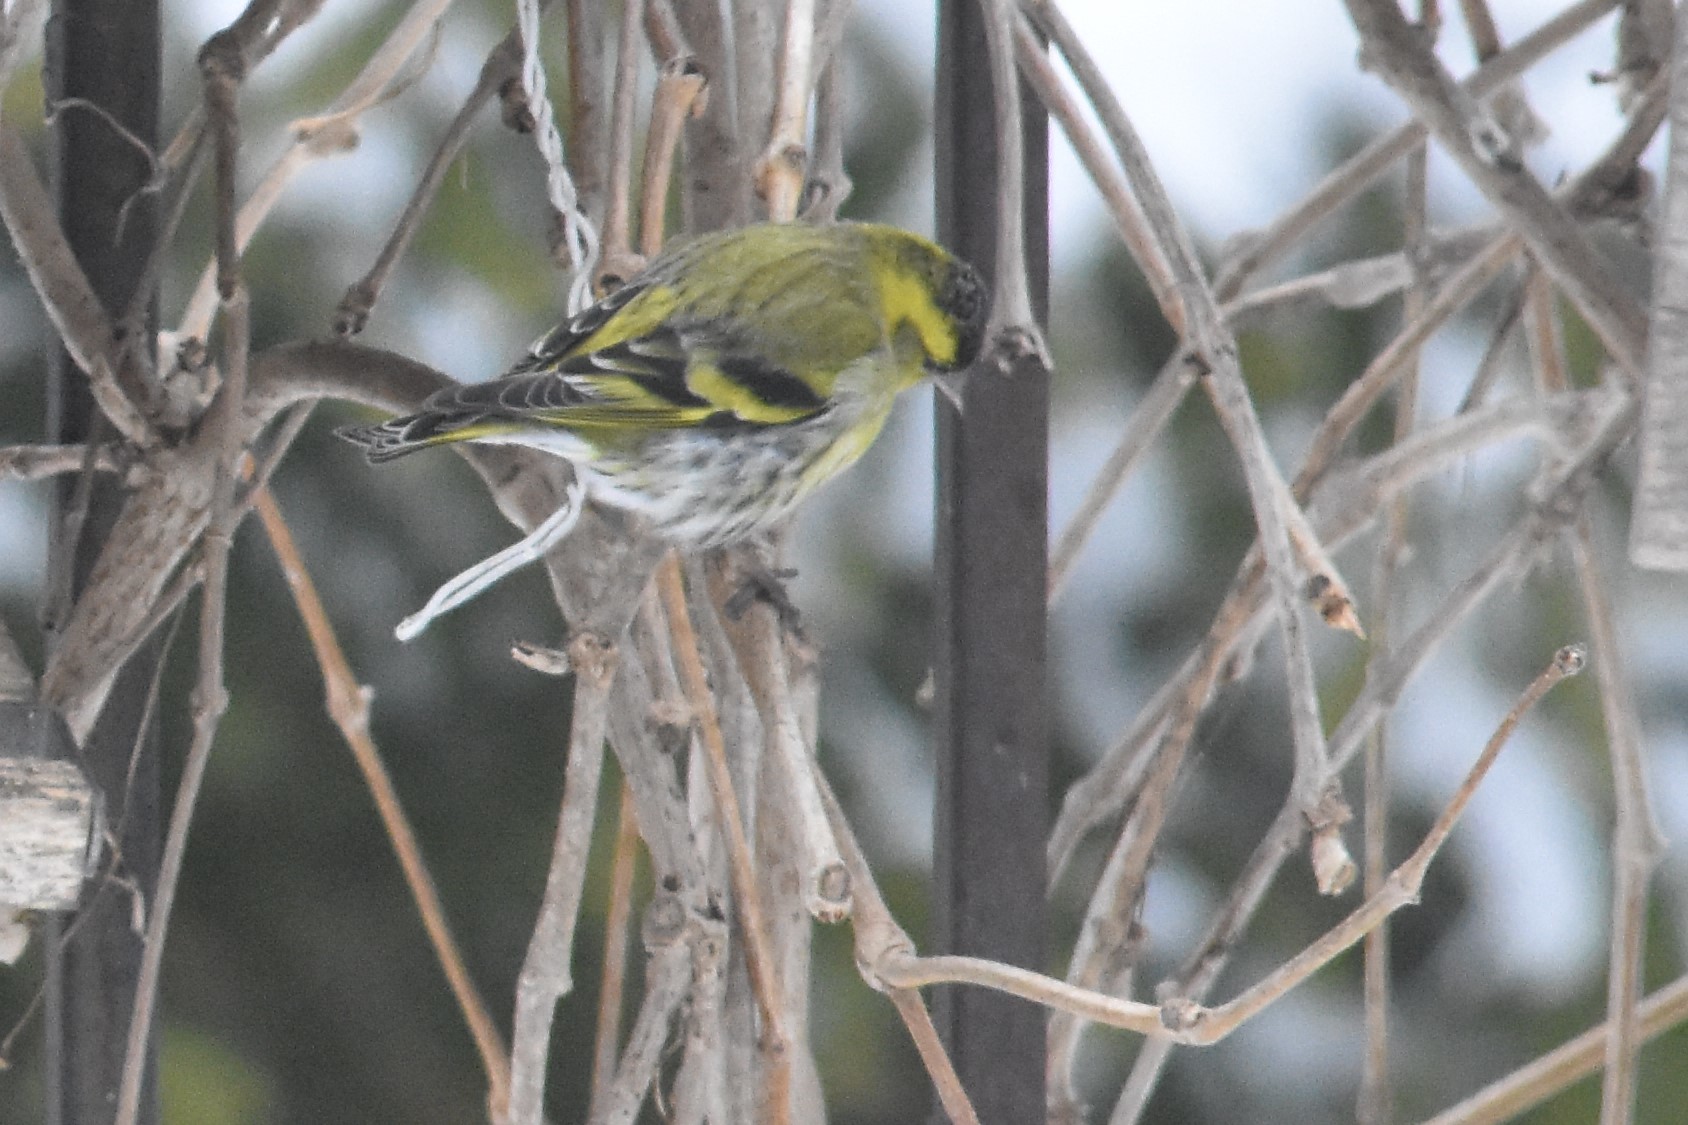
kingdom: Animalia
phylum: Chordata
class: Aves
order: Passeriformes
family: Fringillidae
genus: Spinus
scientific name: Spinus spinus
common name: Eurasian siskin
